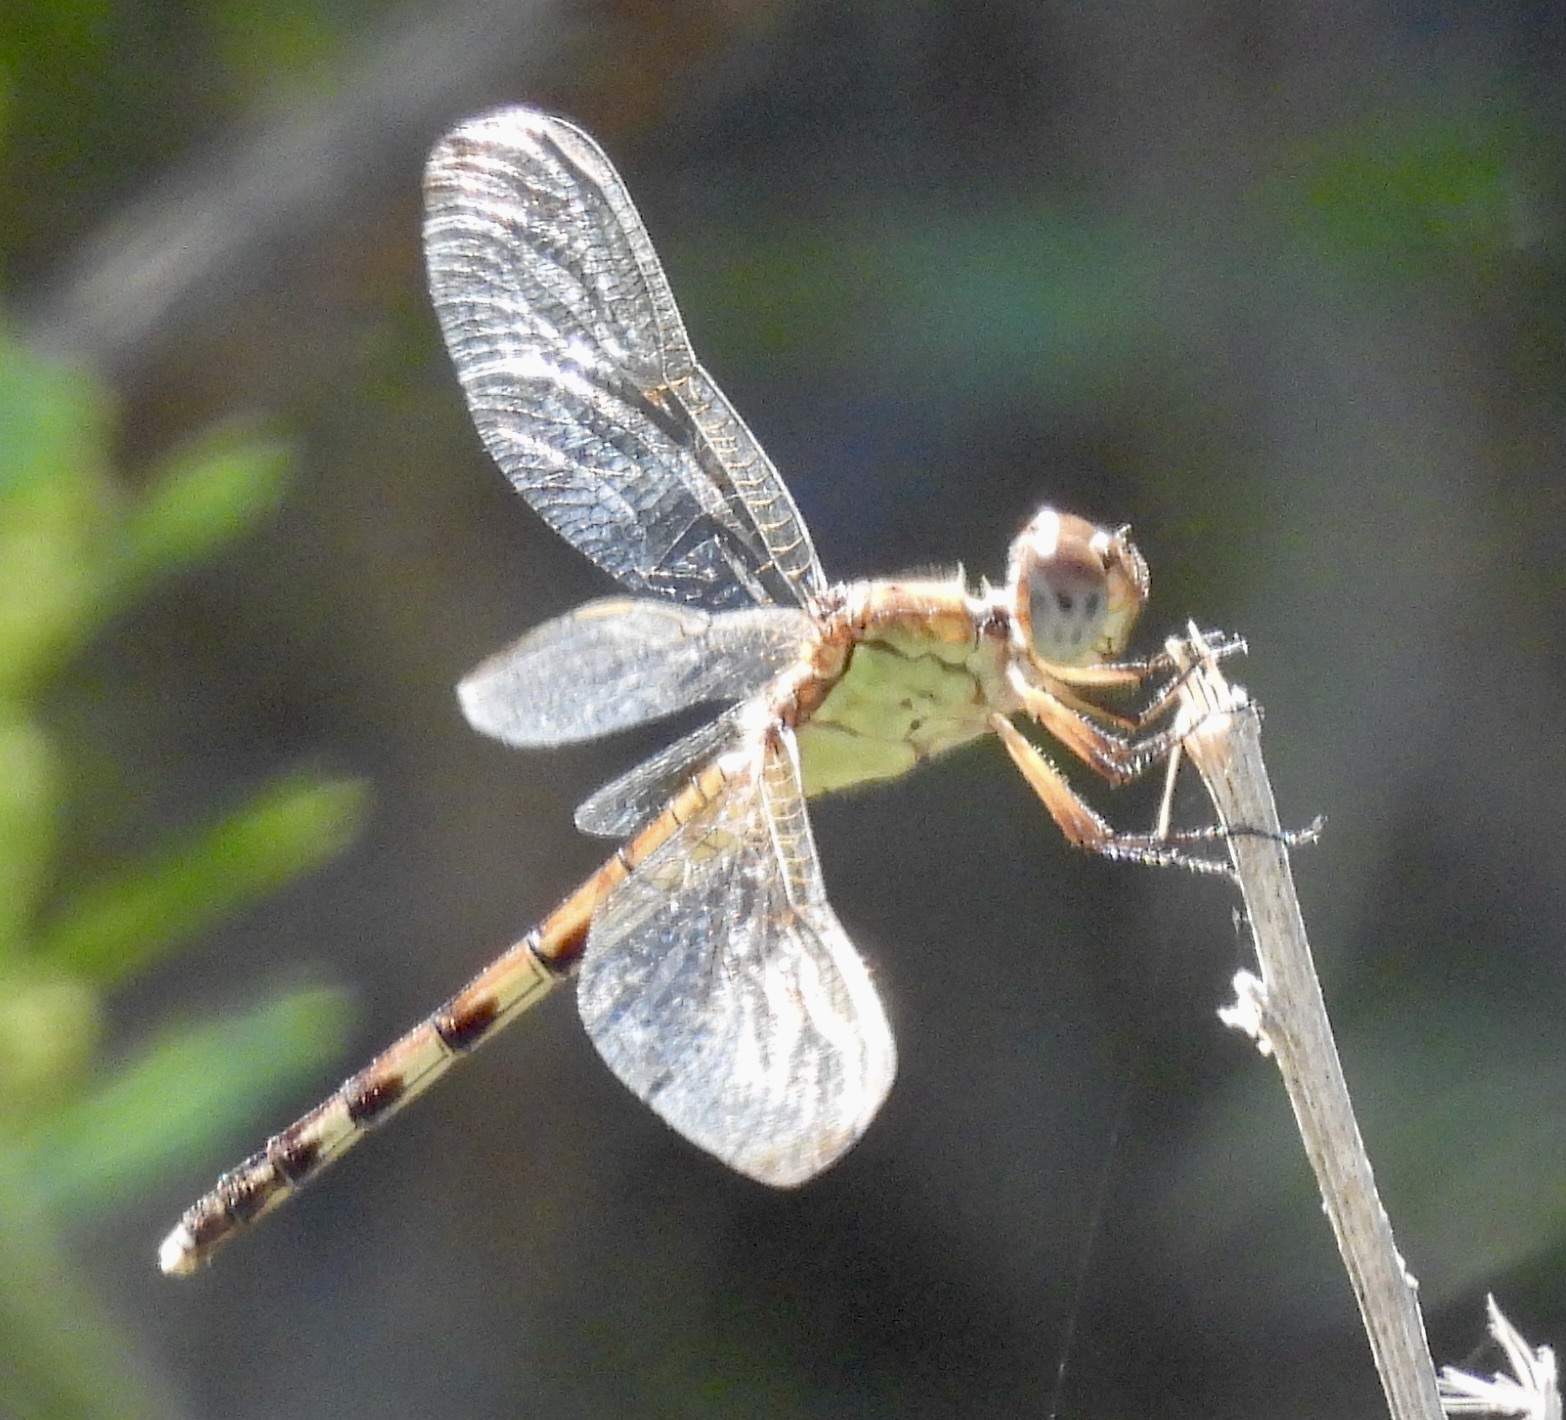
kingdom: Animalia
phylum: Arthropoda
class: Insecta
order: Odonata
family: Libellulidae
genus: Erythrodiplax
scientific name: Erythrodiplax umbrata
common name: Band-winged dragonlet
